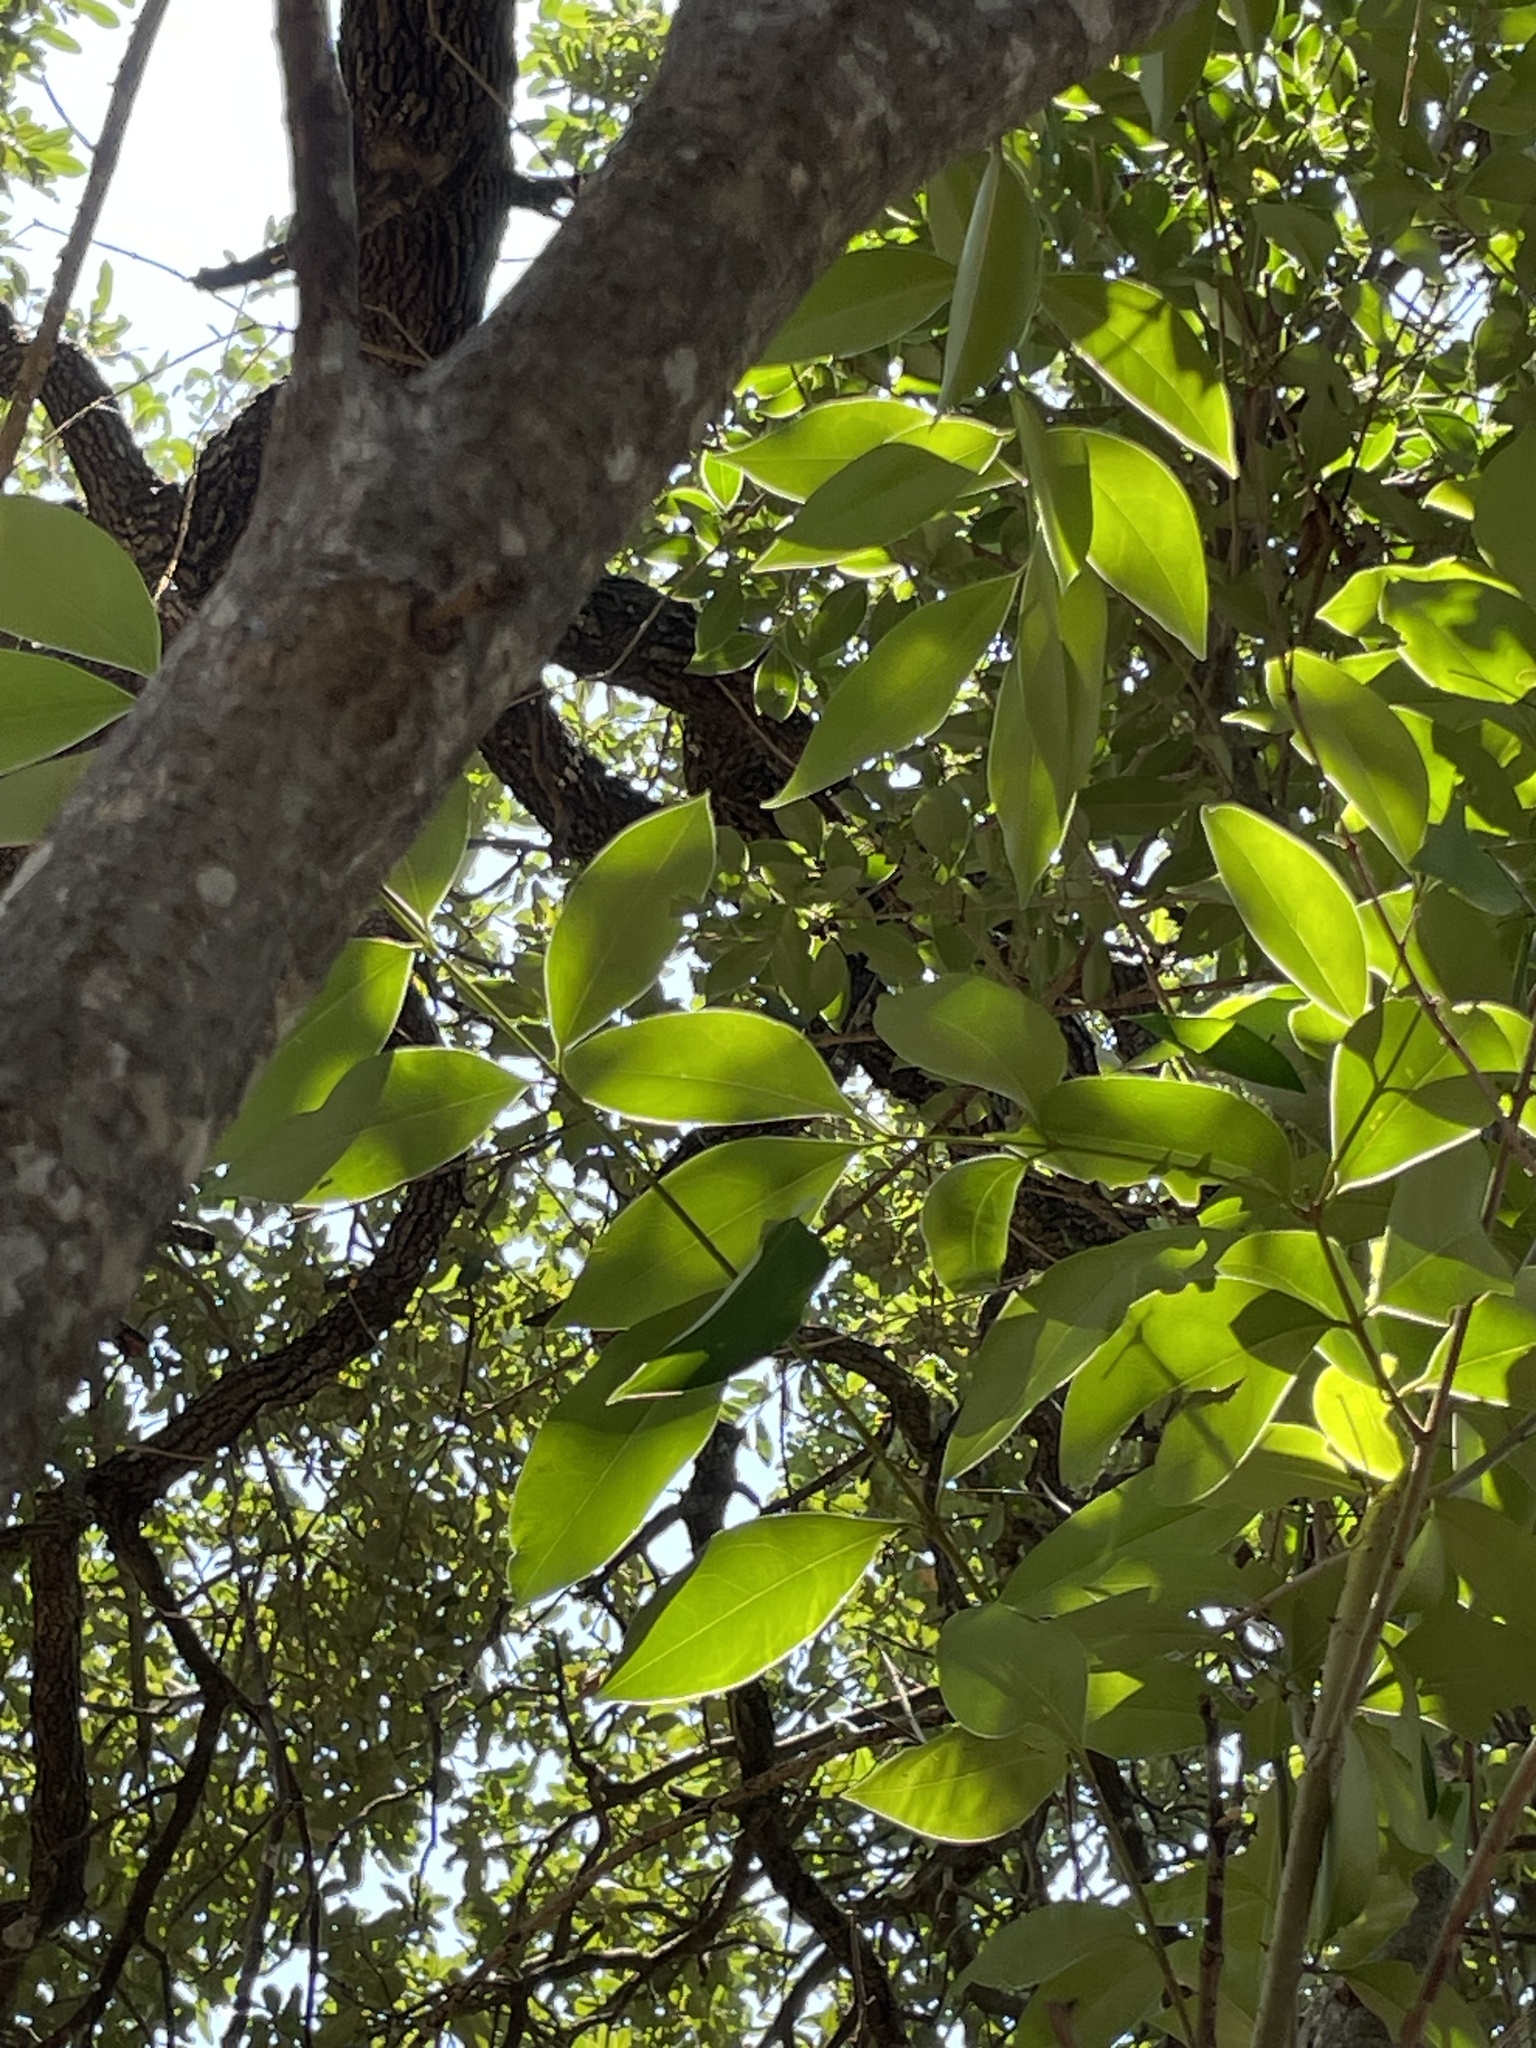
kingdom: Plantae
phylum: Tracheophyta
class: Magnoliopsida
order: Lamiales
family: Oleaceae
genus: Ligustrum
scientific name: Ligustrum lucidum
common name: Glossy privet
